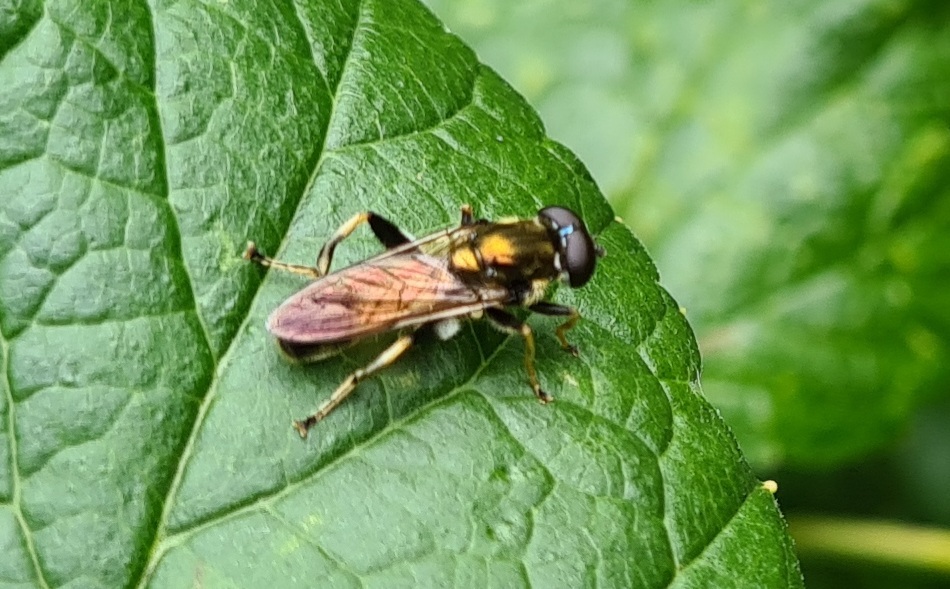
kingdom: Animalia
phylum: Arthropoda
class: Insecta
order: Diptera
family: Syrphidae
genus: Xylota
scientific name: Xylota segnis
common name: Brown-toed forest fly
